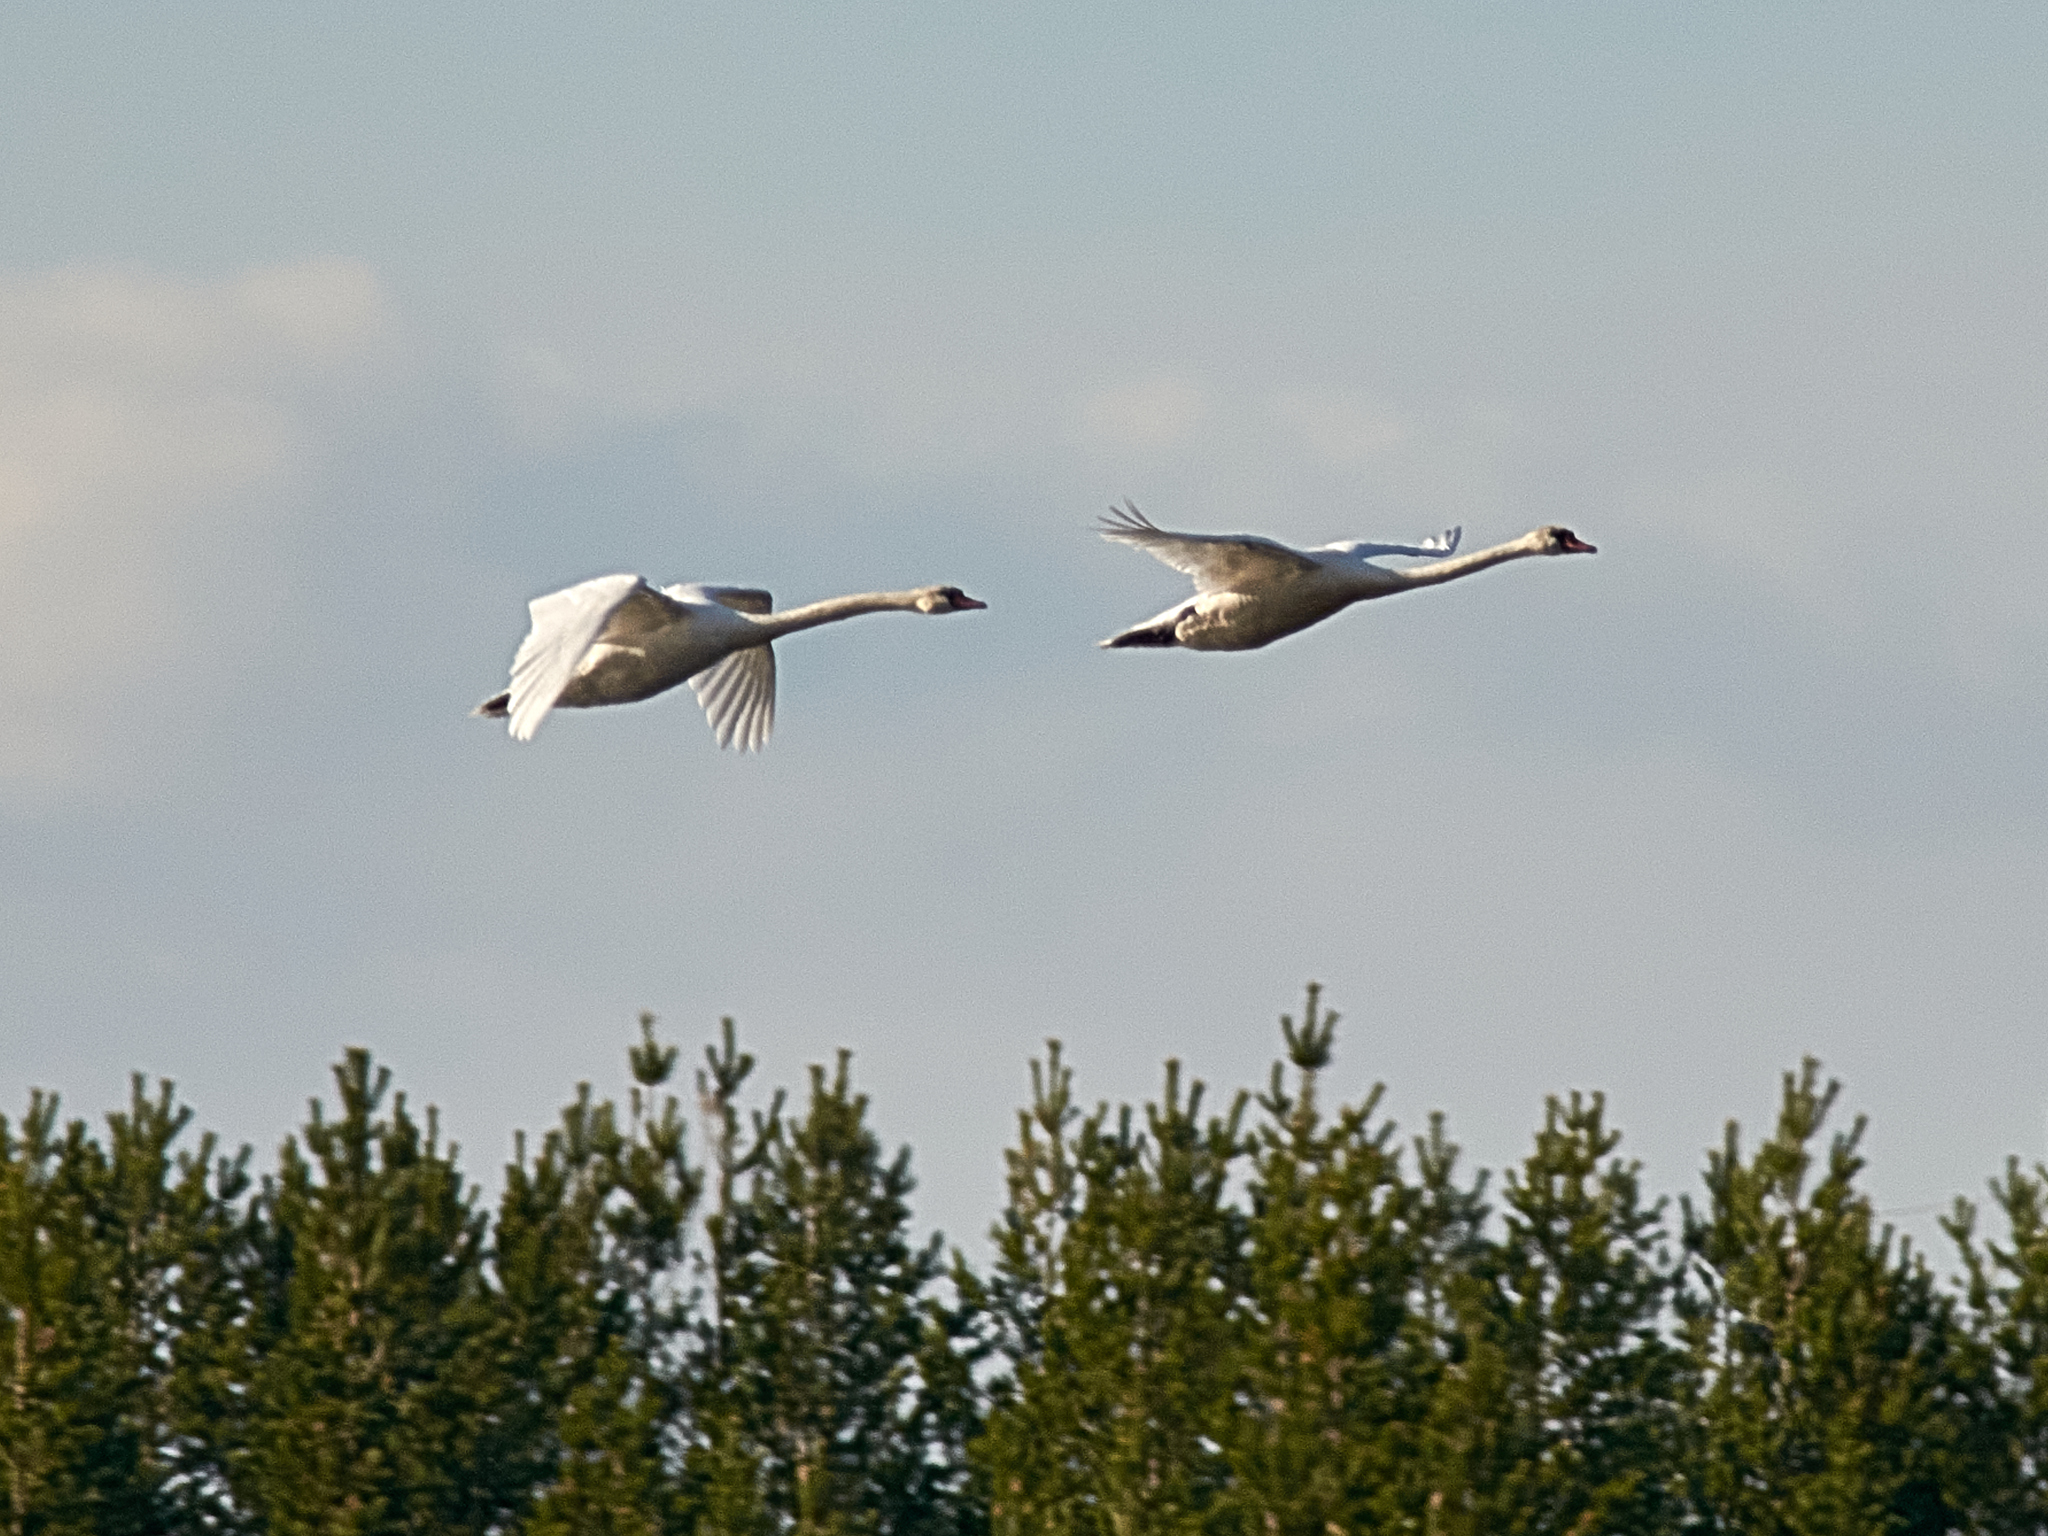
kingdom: Animalia
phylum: Chordata
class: Aves
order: Anseriformes
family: Anatidae
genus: Cygnus
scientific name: Cygnus olor
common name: Mute swan
